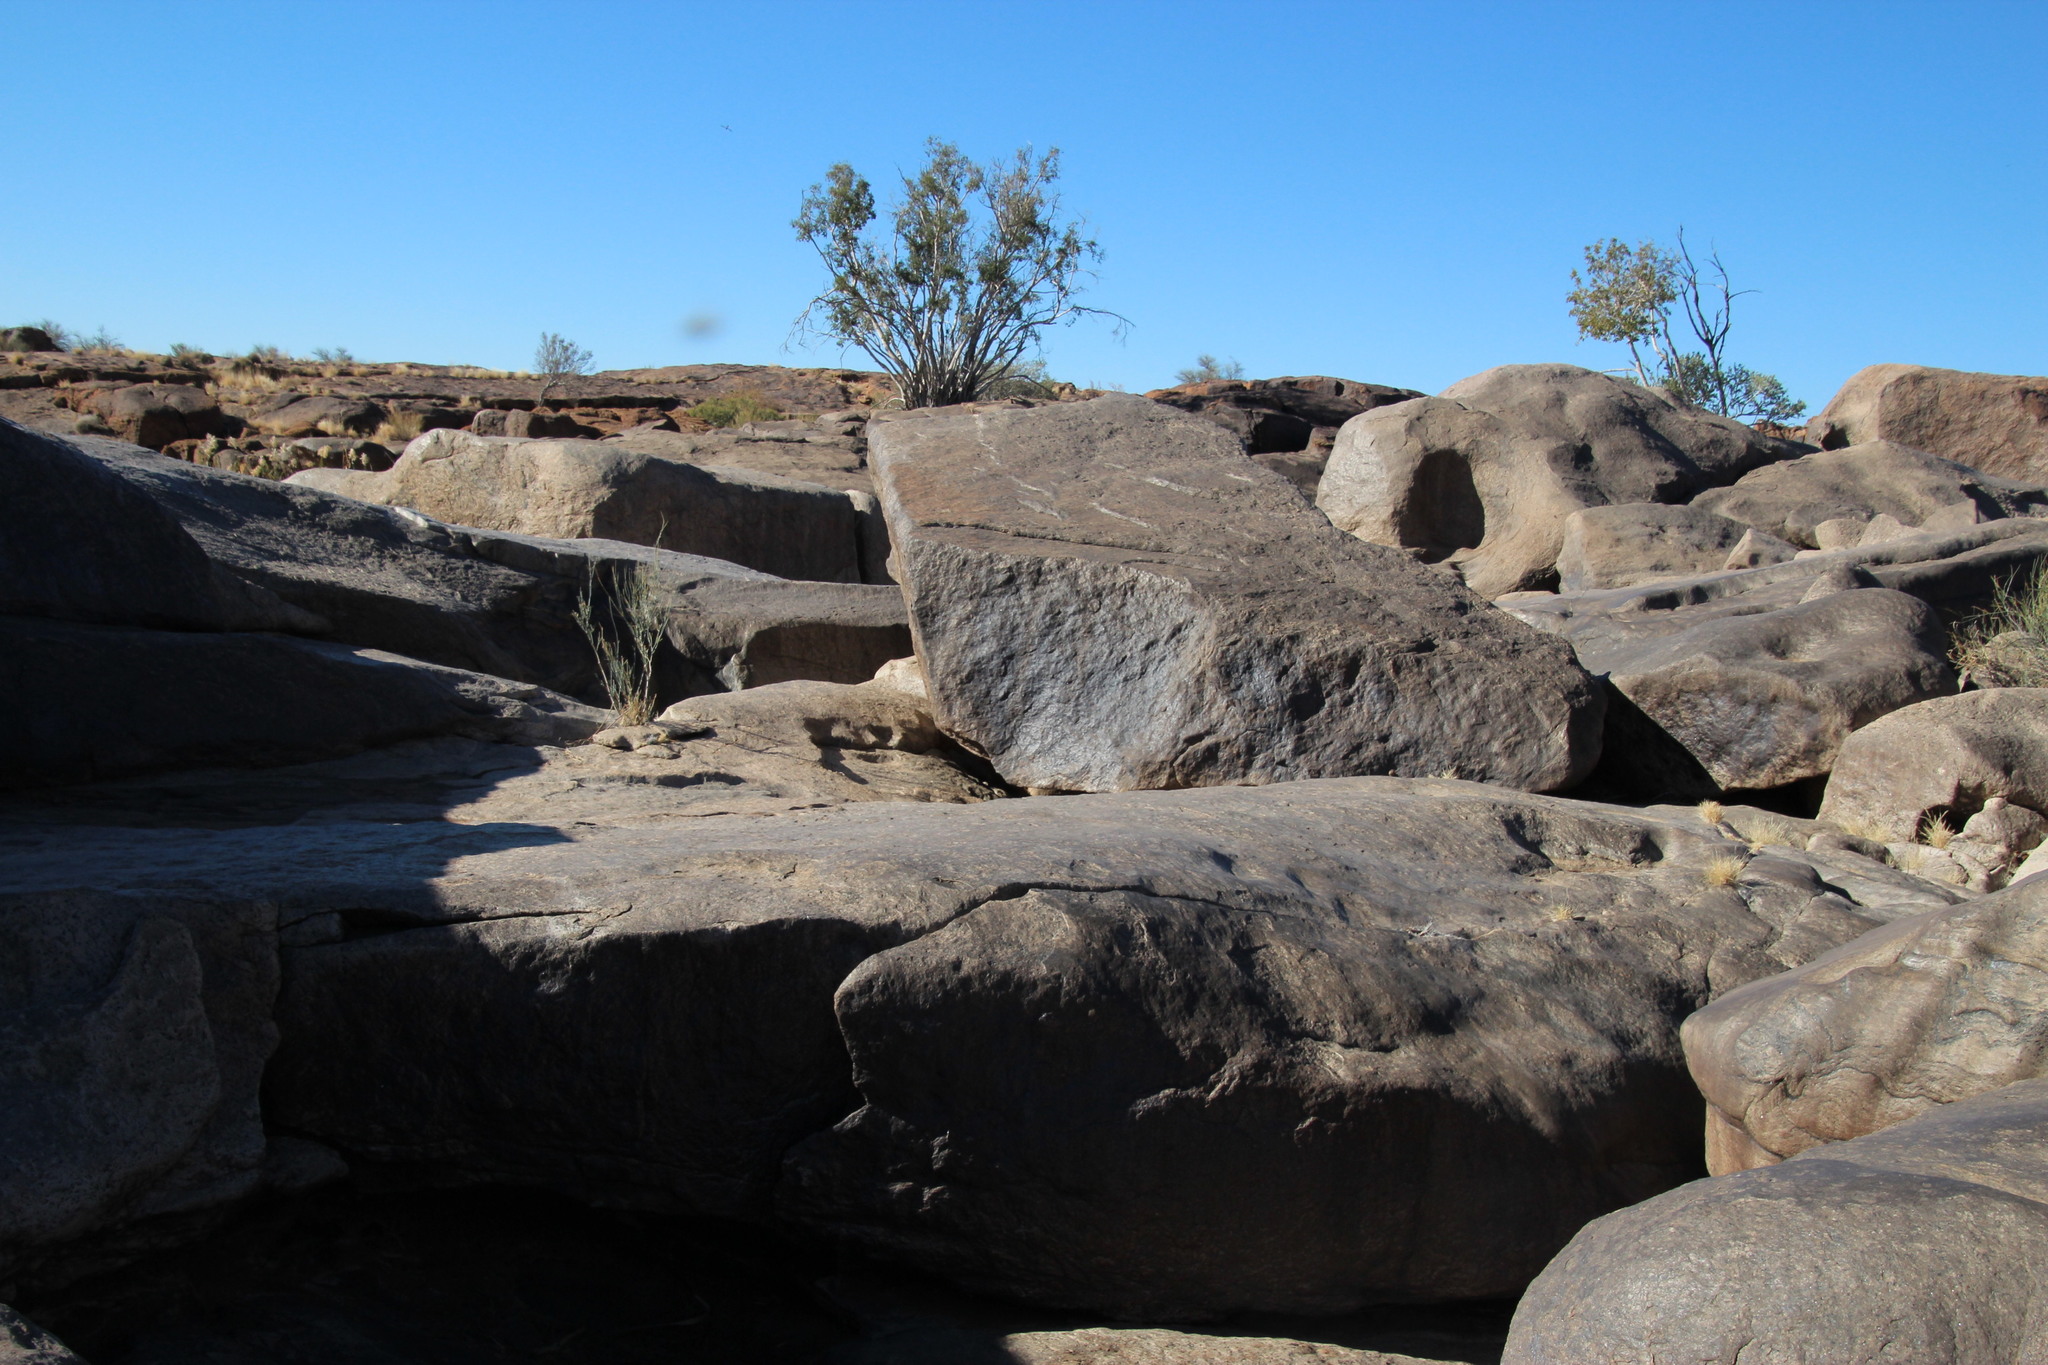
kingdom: Animalia
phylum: Chordata
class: Squamata
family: Cordylidae
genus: Platysaurus
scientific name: Platysaurus broadleyi
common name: Augrabies flat lizard
